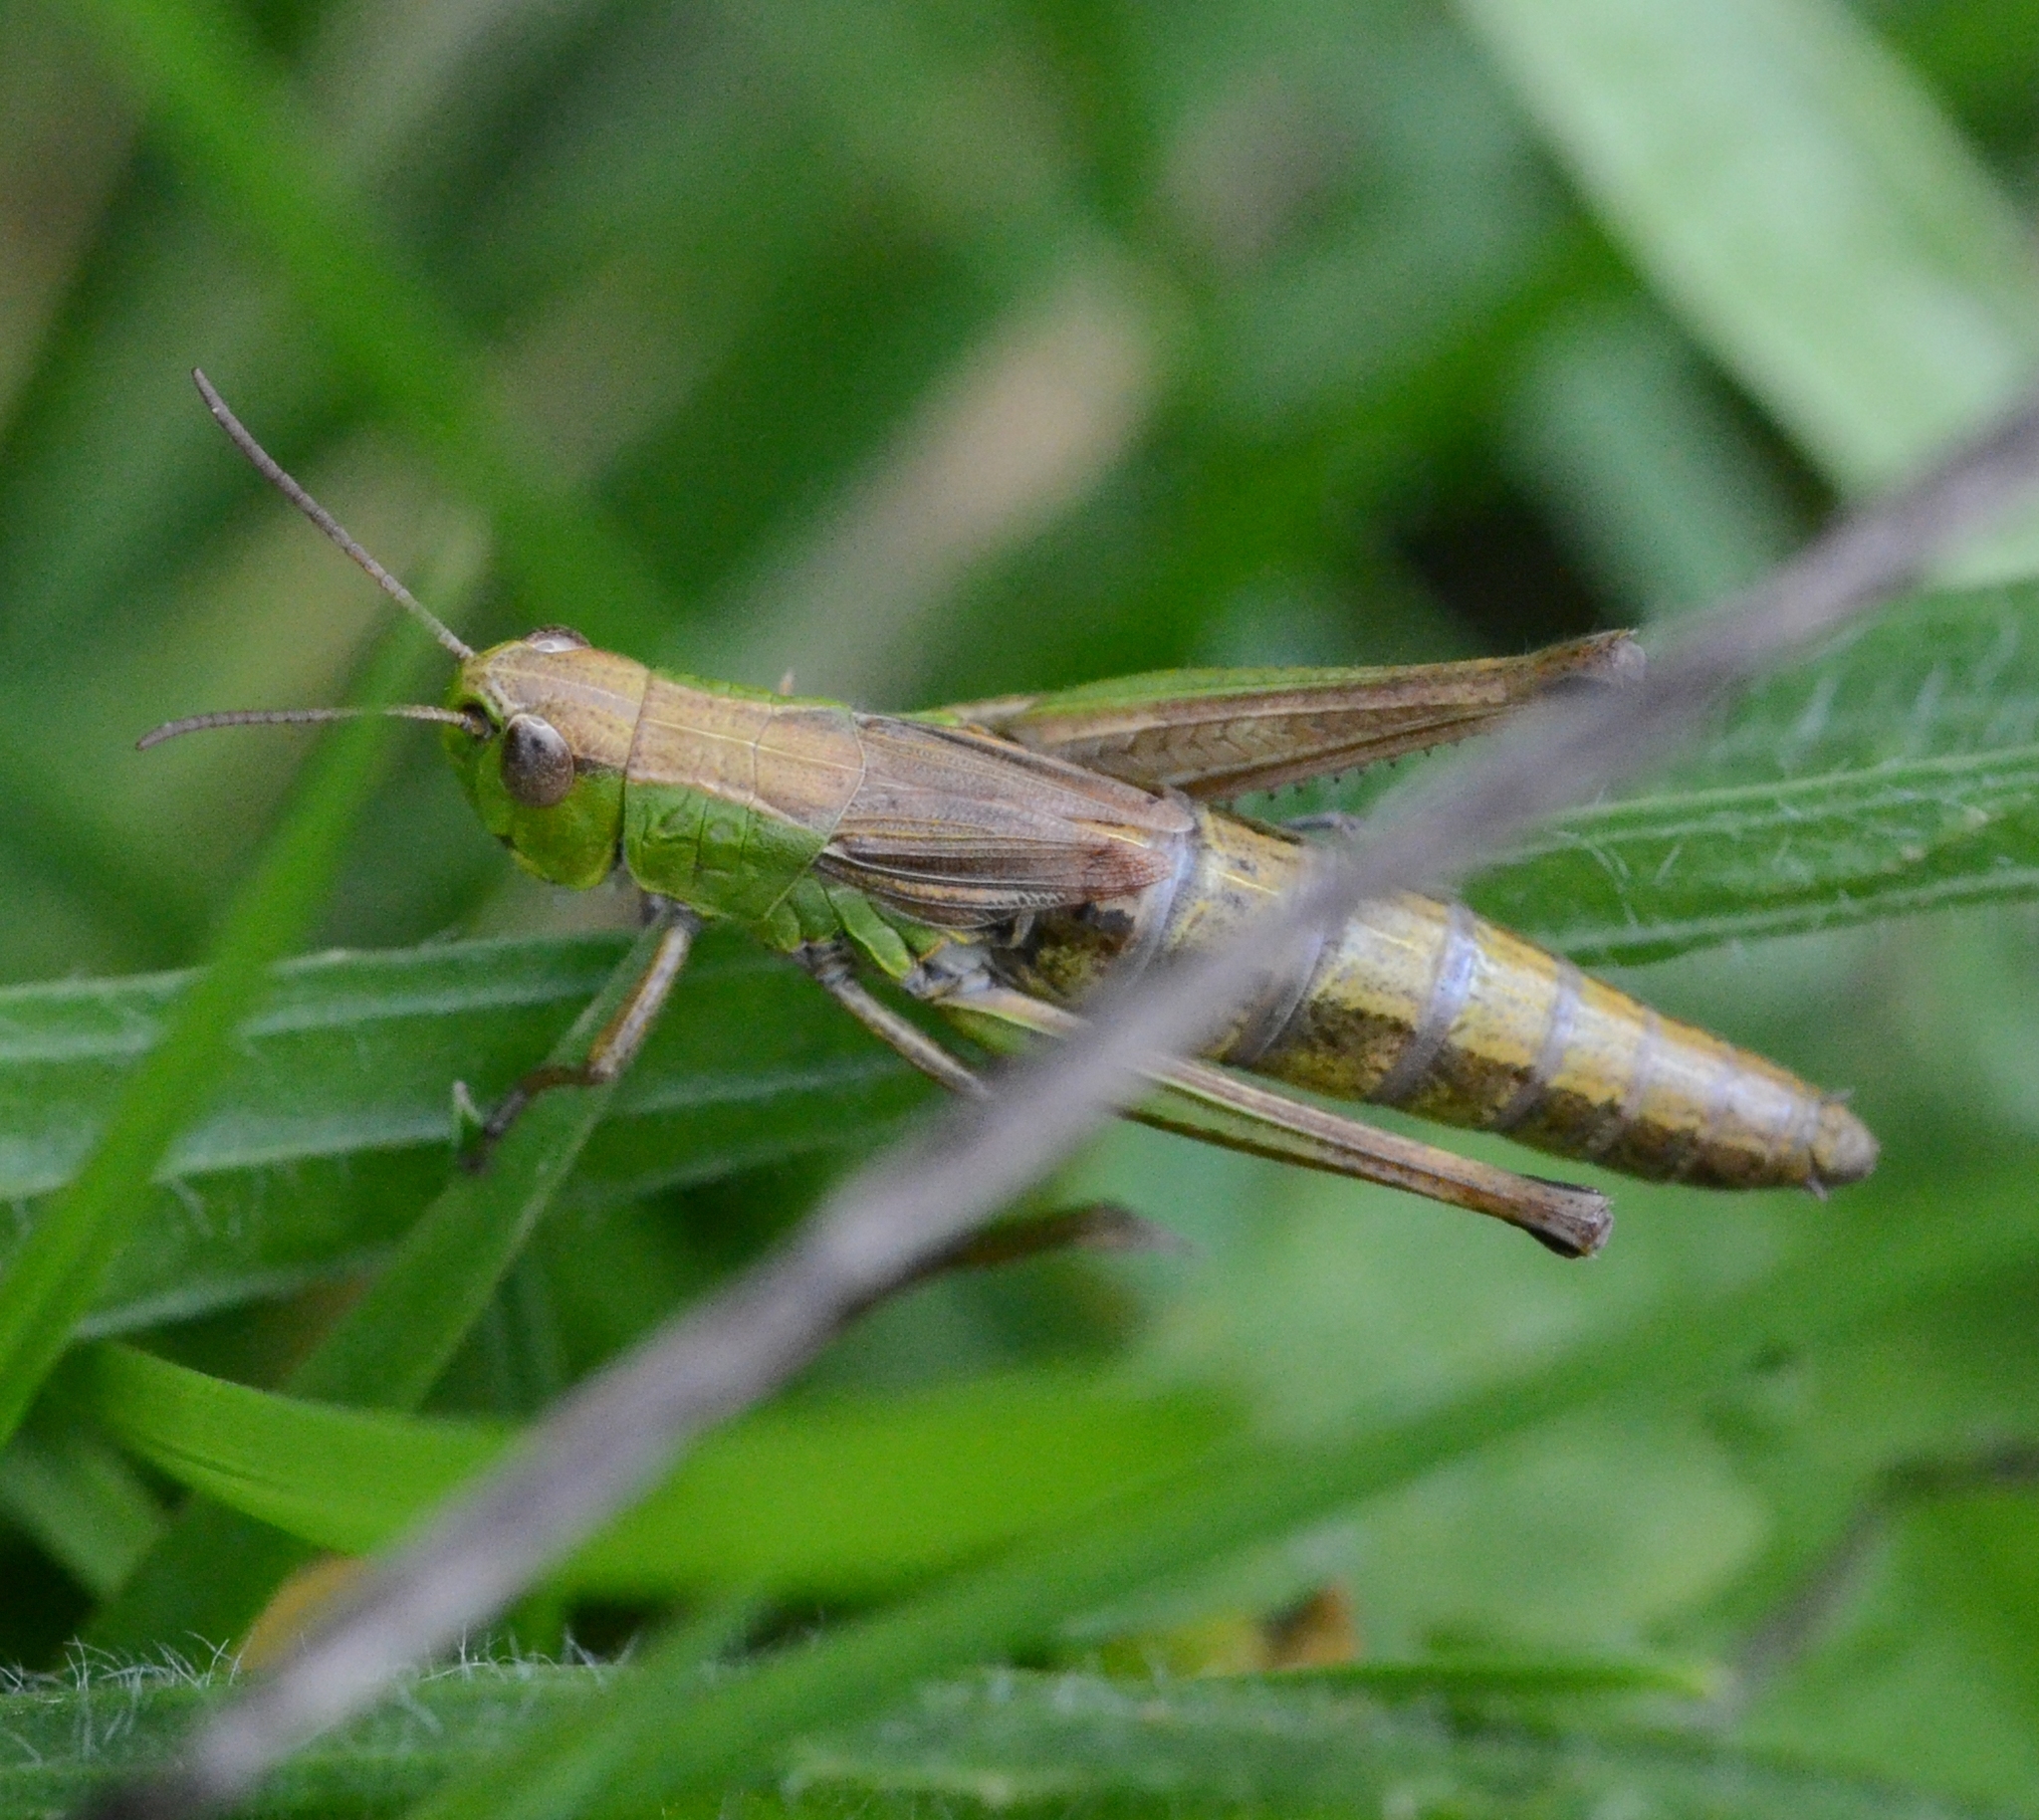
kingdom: Animalia
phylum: Arthropoda
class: Insecta
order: Orthoptera
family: Acrididae
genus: Pseudochorthippus
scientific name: Pseudochorthippus parallelus
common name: Meadow grasshopper
